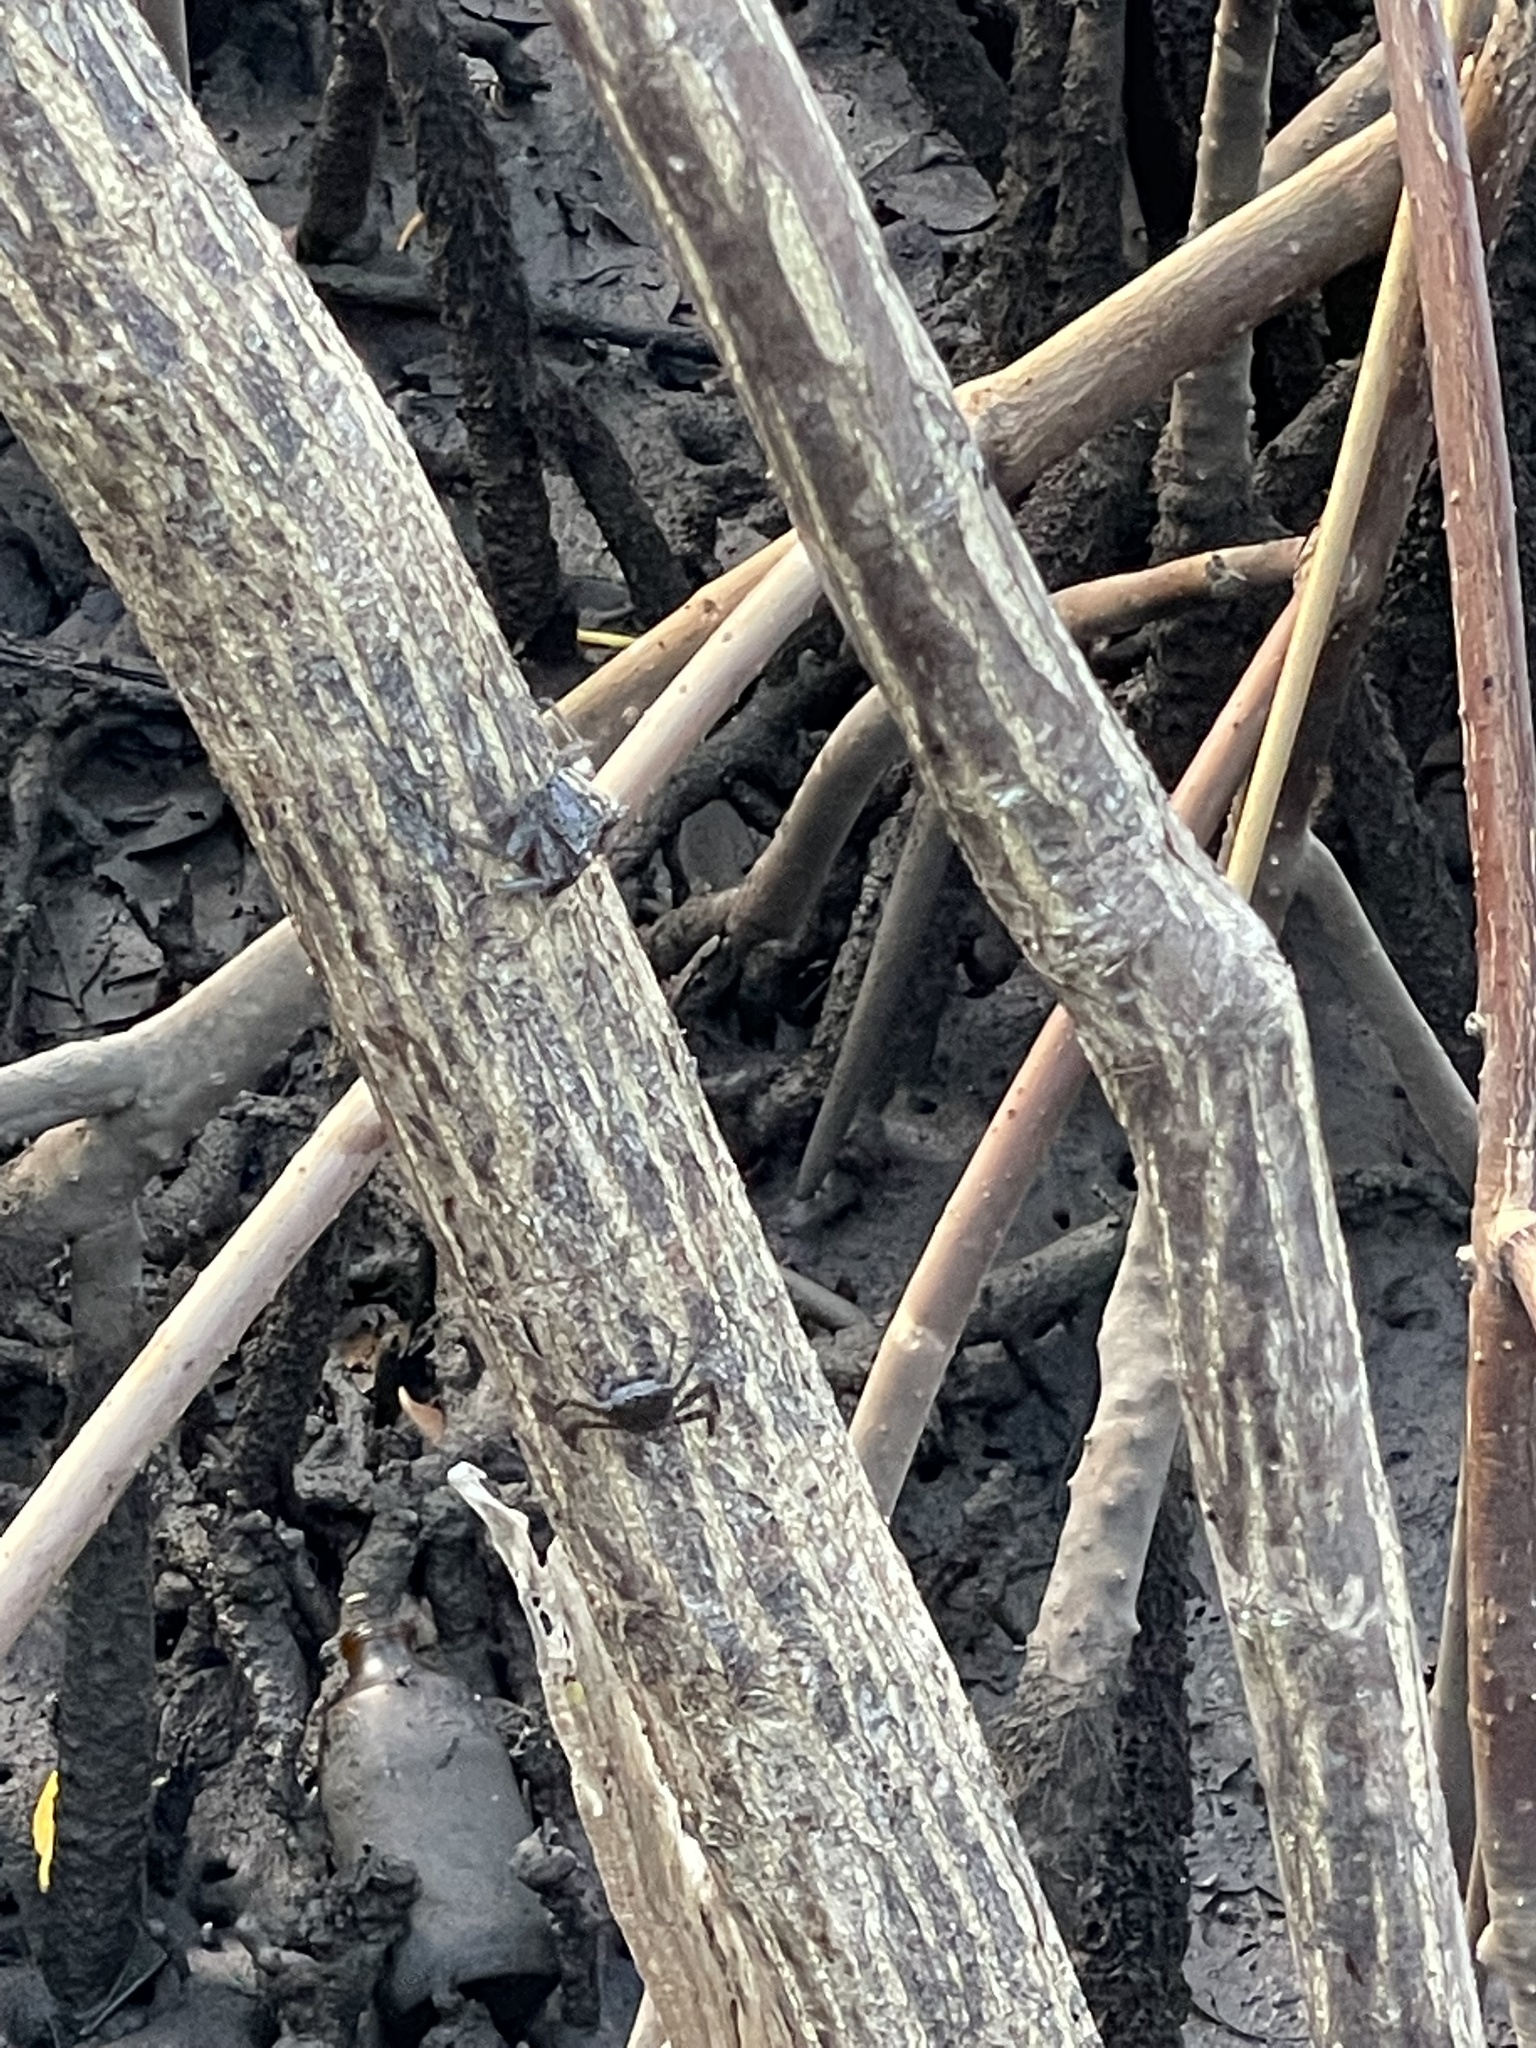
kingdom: Animalia
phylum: Arthropoda
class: Malacostraca
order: Decapoda
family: Sesarmidae
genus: Aratus
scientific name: Aratus pisonii
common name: Mangrove crab
